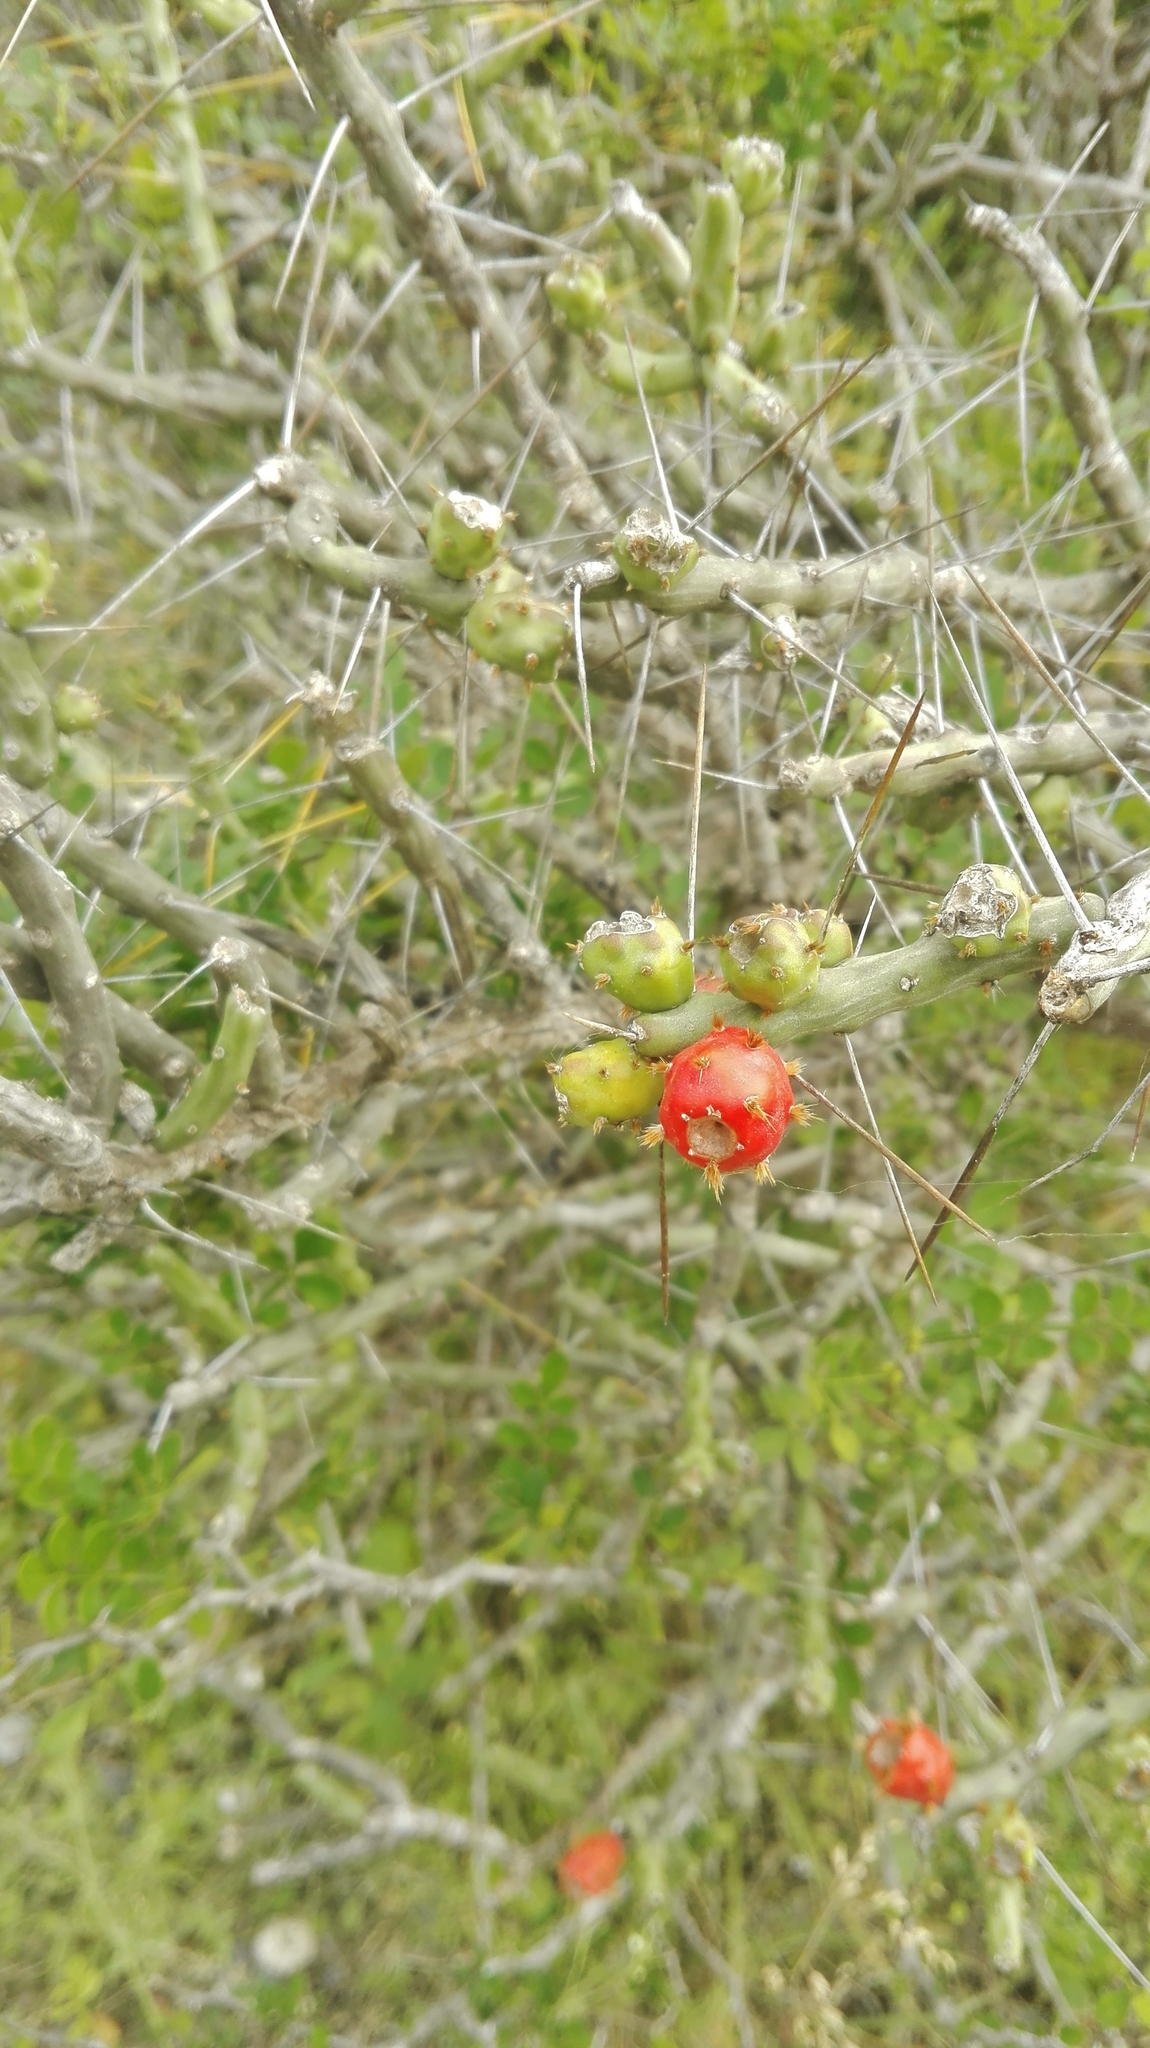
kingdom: Plantae
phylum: Tracheophyta
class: Magnoliopsida
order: Caryophyllales
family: Cactaceae
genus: Cylindropuntia
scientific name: Cylindropuntia leptocaulis
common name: Christmas cactus
